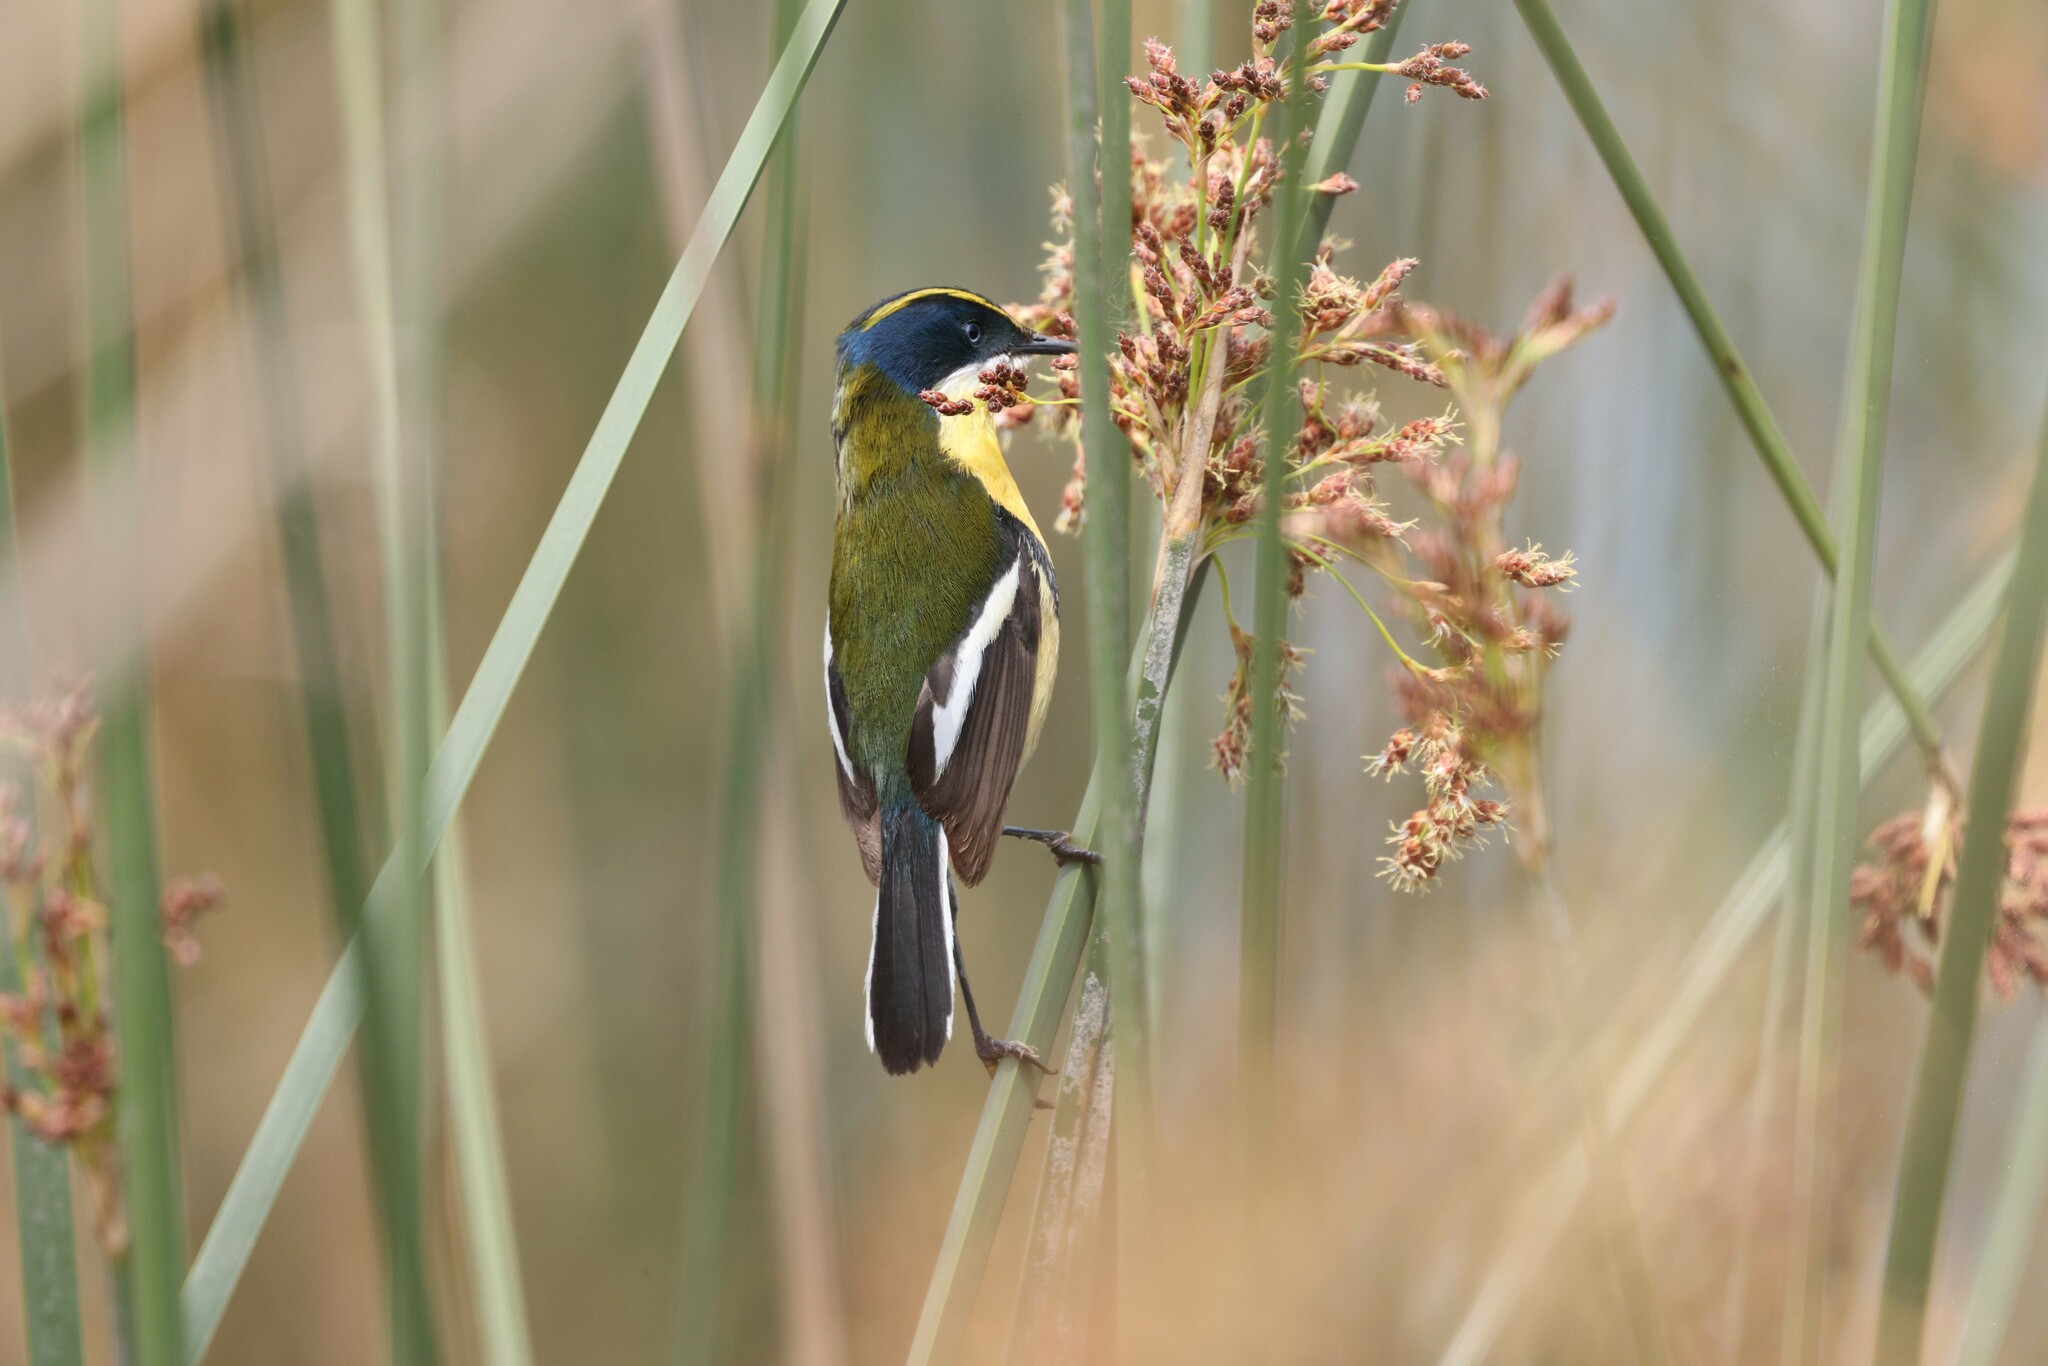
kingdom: Animalia
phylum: Chordata
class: Aves
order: Passeriformes
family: Tyrannidae
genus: Tachuris
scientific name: Tachuris rubrigastra
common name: Many-colored rush tyrant
